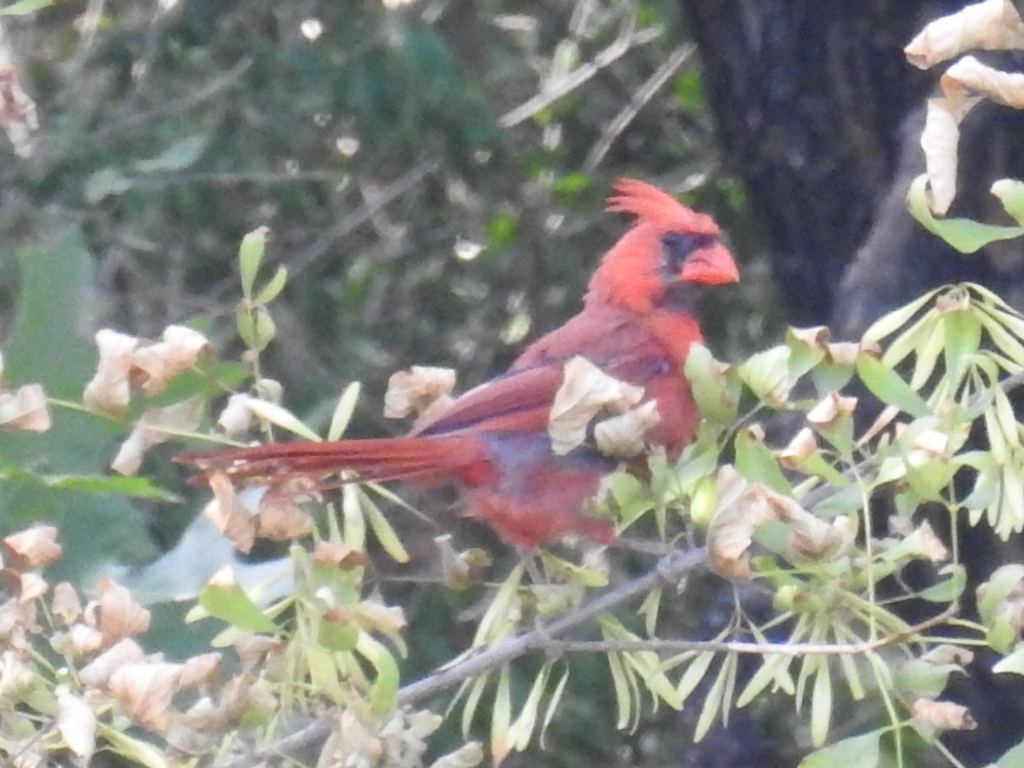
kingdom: Animalia
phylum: Chordata
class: Aves
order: Passeriformes
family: Cardinalidae
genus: Cardinalis
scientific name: Cardinalis cardinalis
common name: Northern cardinal
